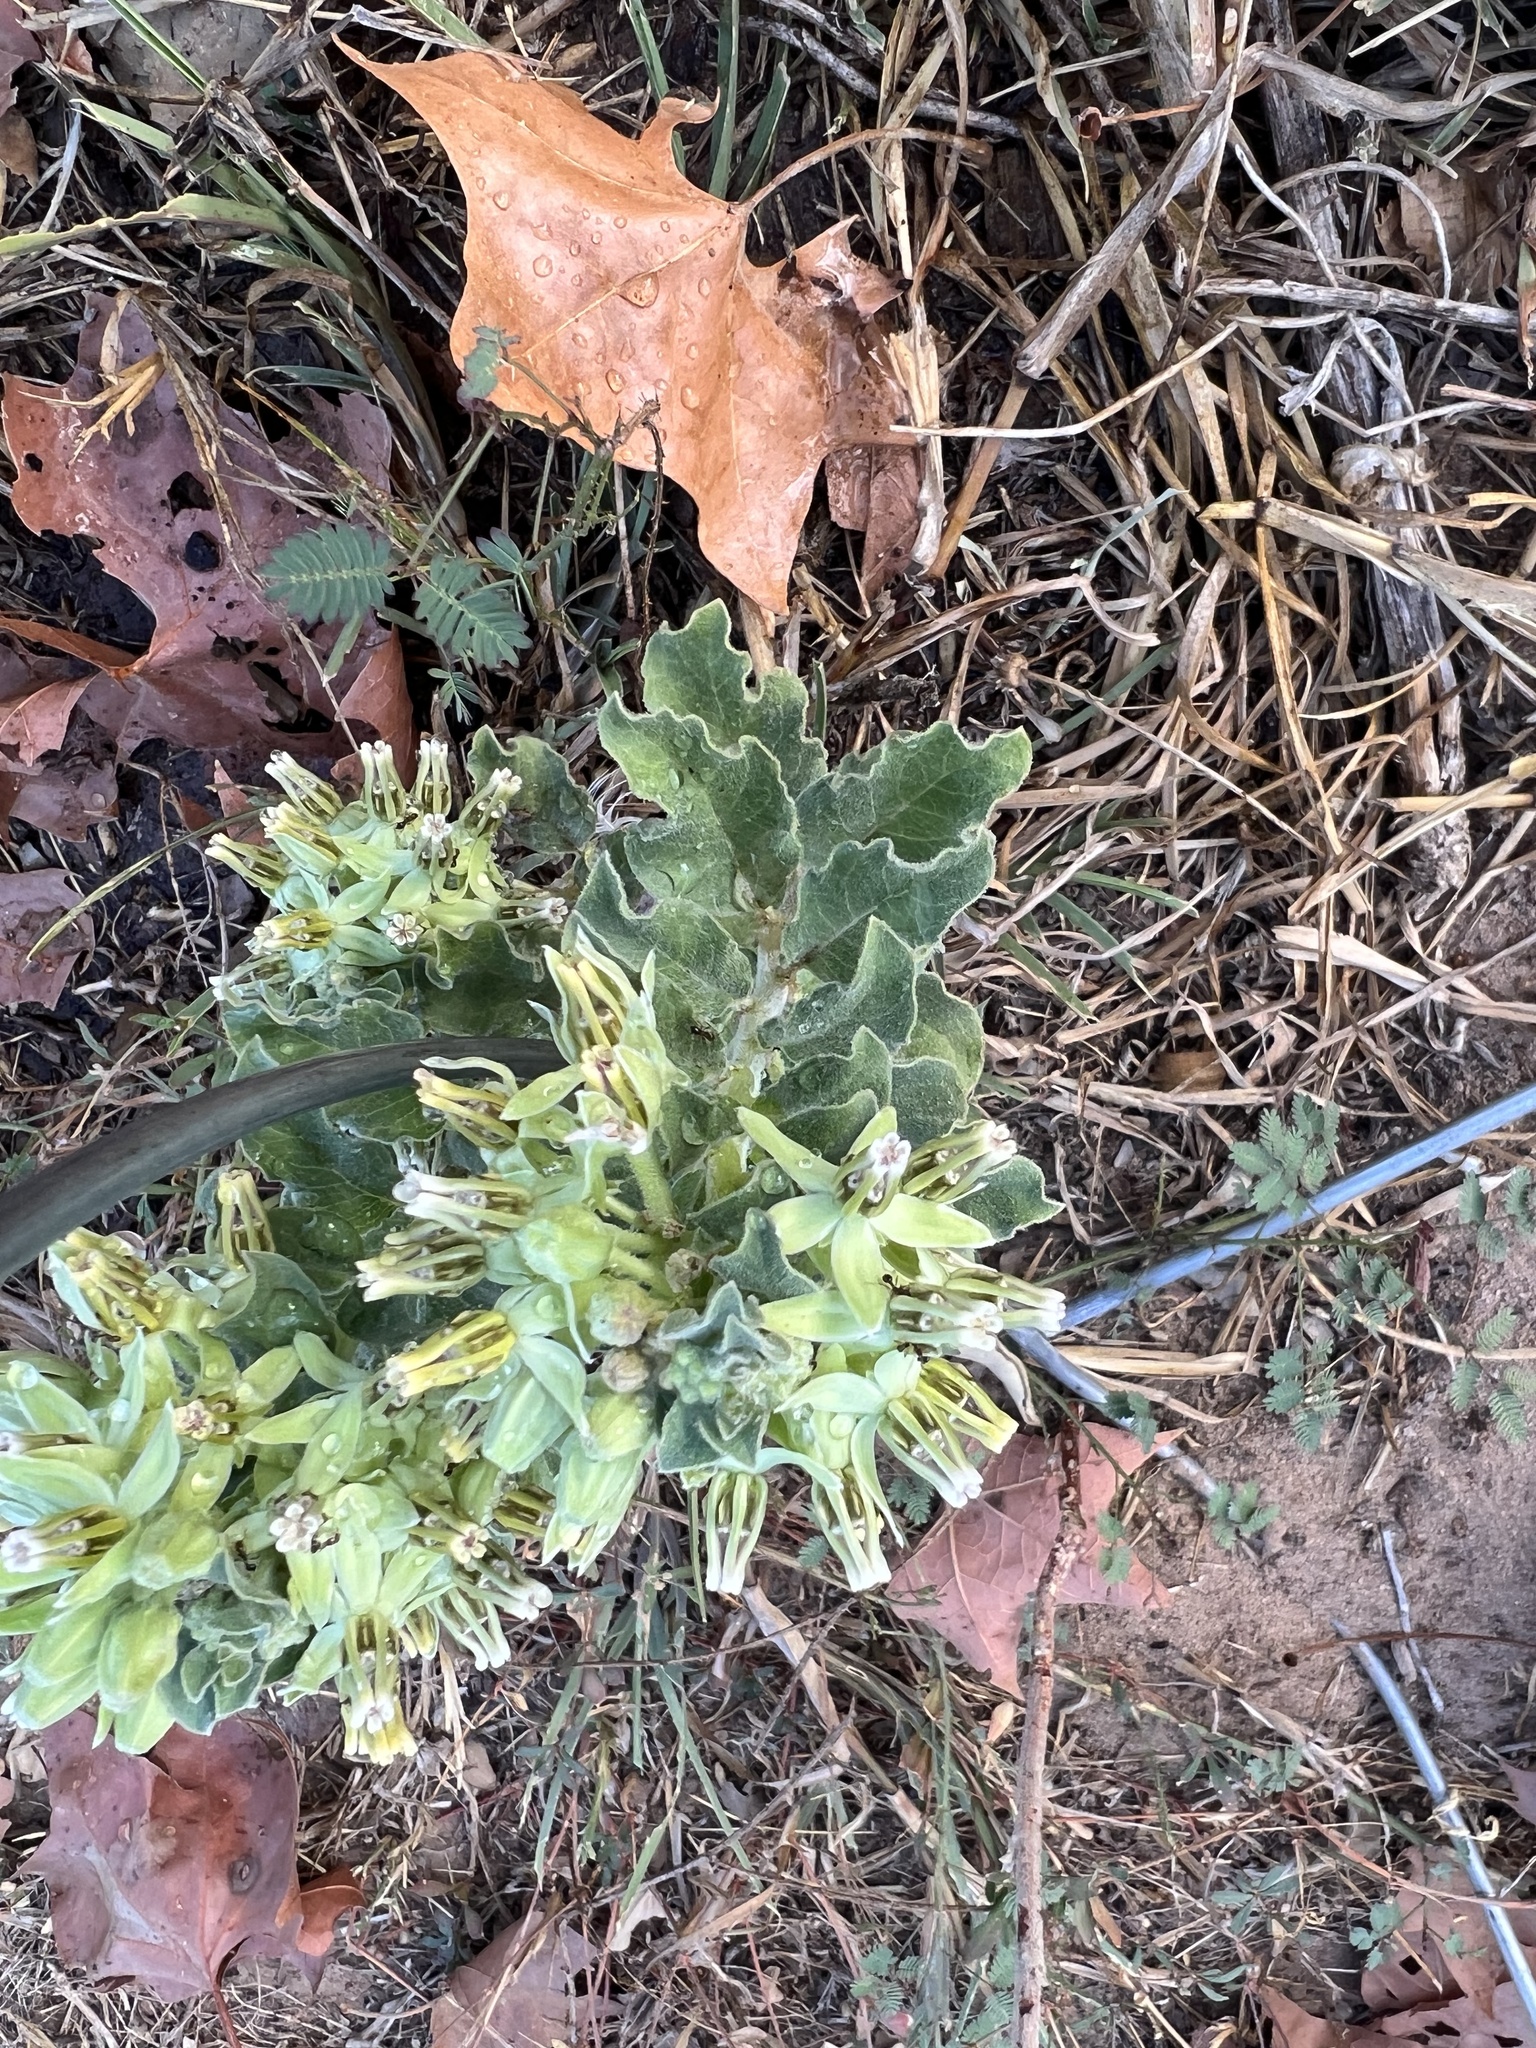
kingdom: Plantae
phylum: Tracheophyta
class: Magnoliopsida
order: Gentianales
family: Apocynaceae
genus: Asclepias
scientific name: Asclepias oenotheroides
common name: Zizotes milkweed
